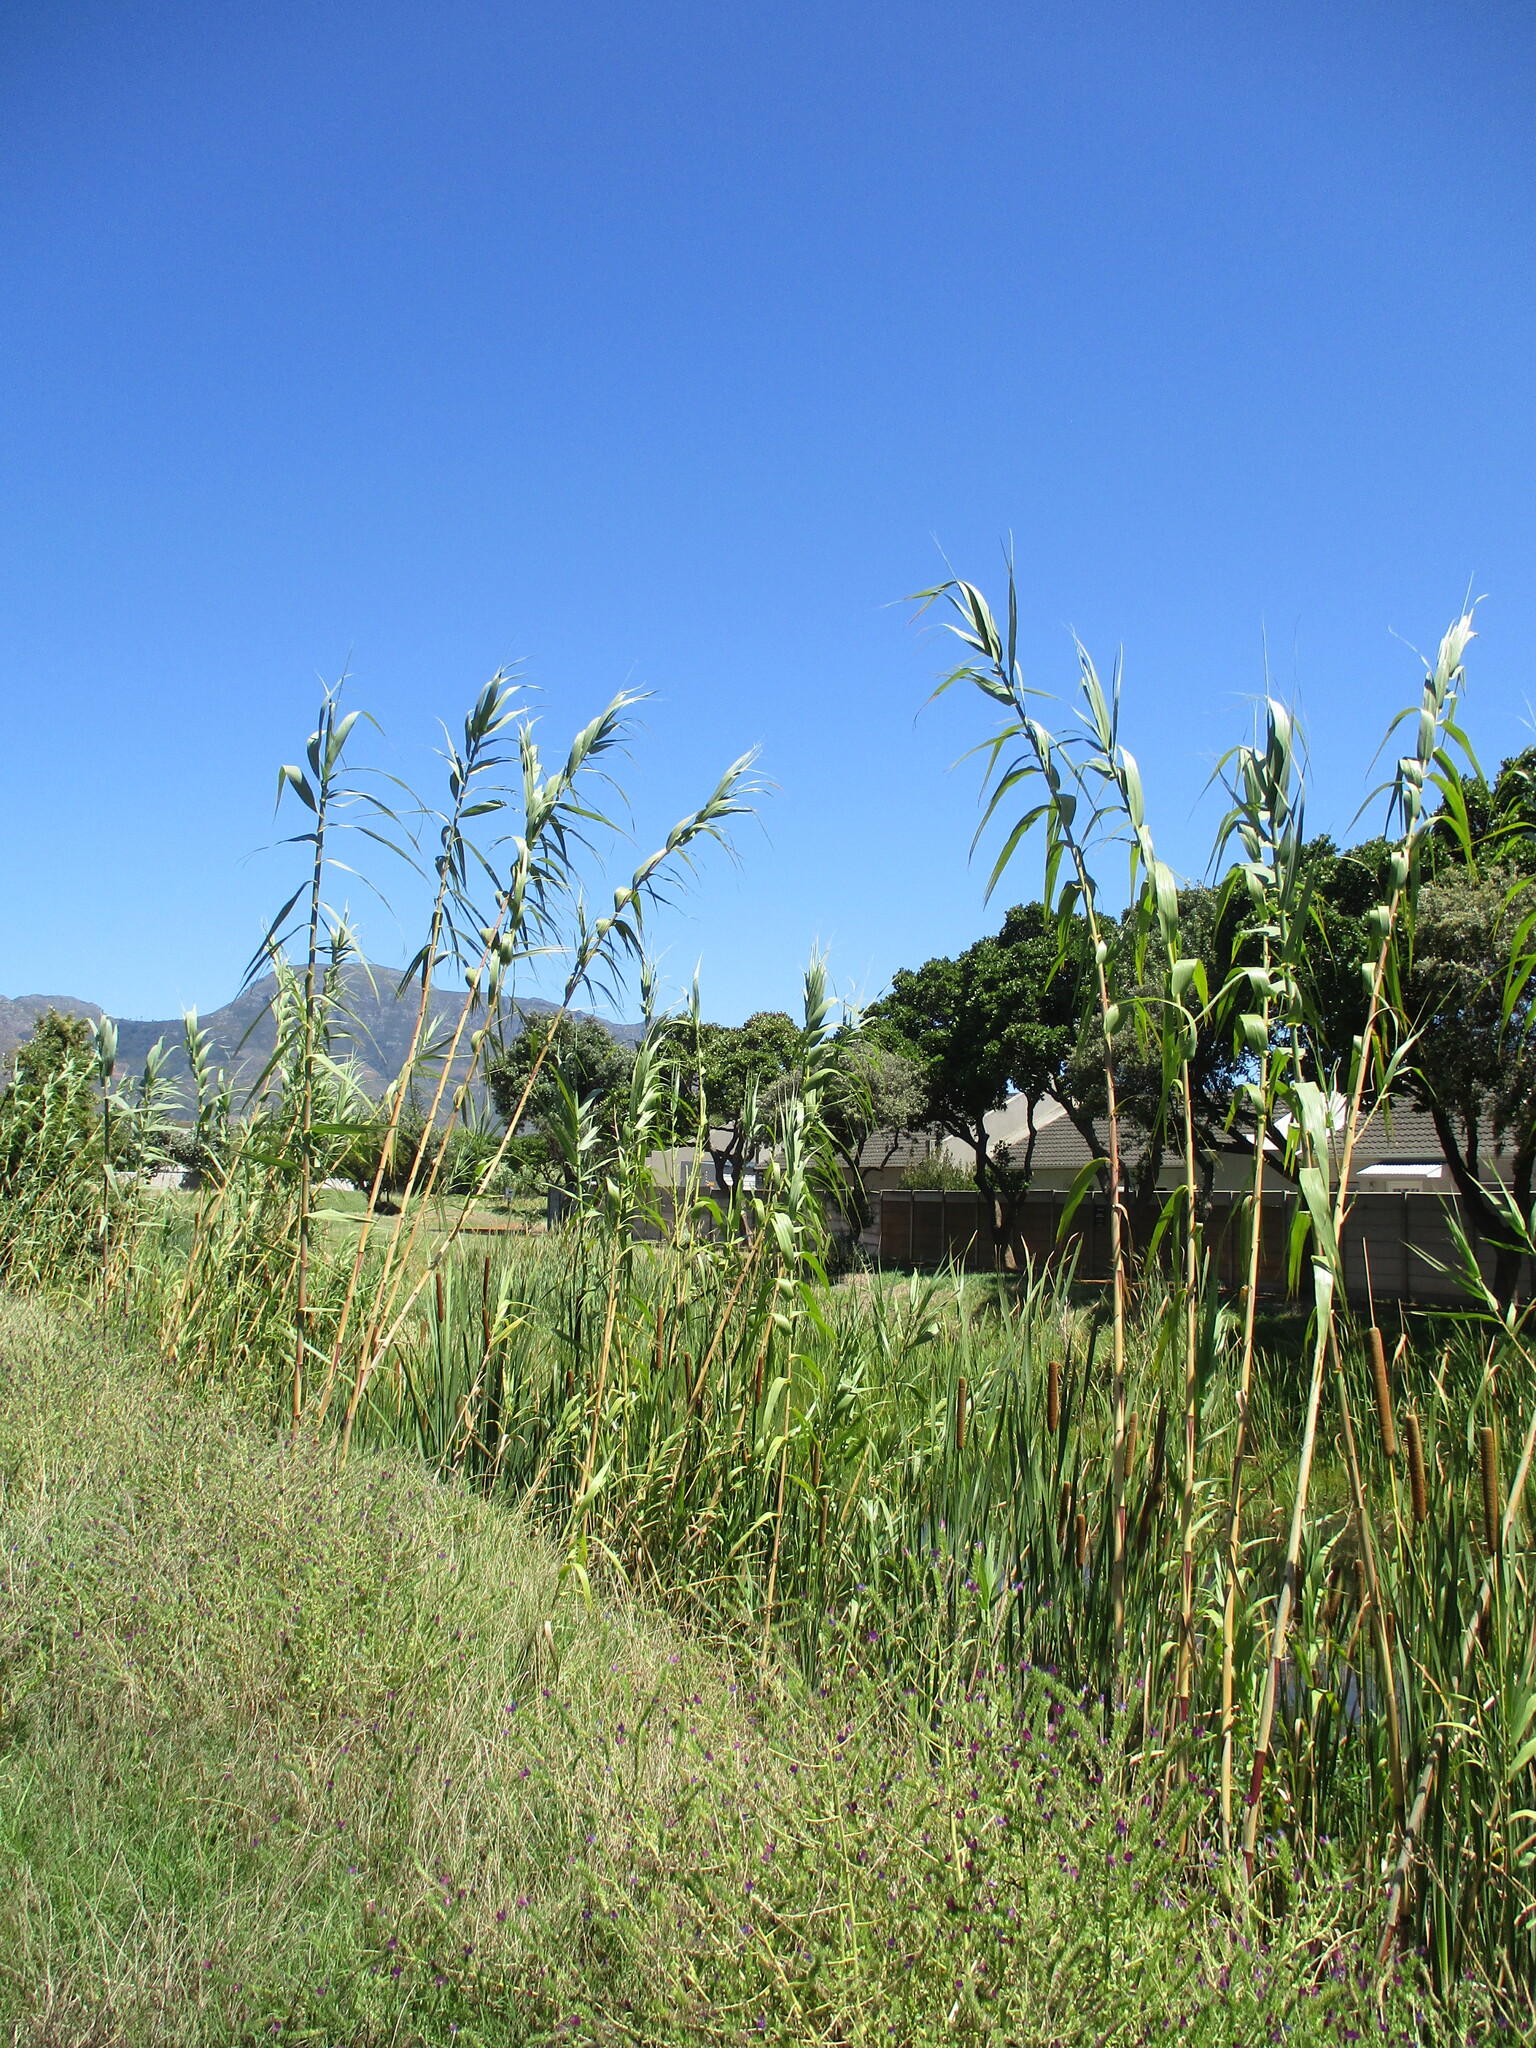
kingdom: Plantae
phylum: Tracheophyta
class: Liliopsida
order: Poales
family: Poaceae
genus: Arundo
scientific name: Arundo donax
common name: Giant reed
